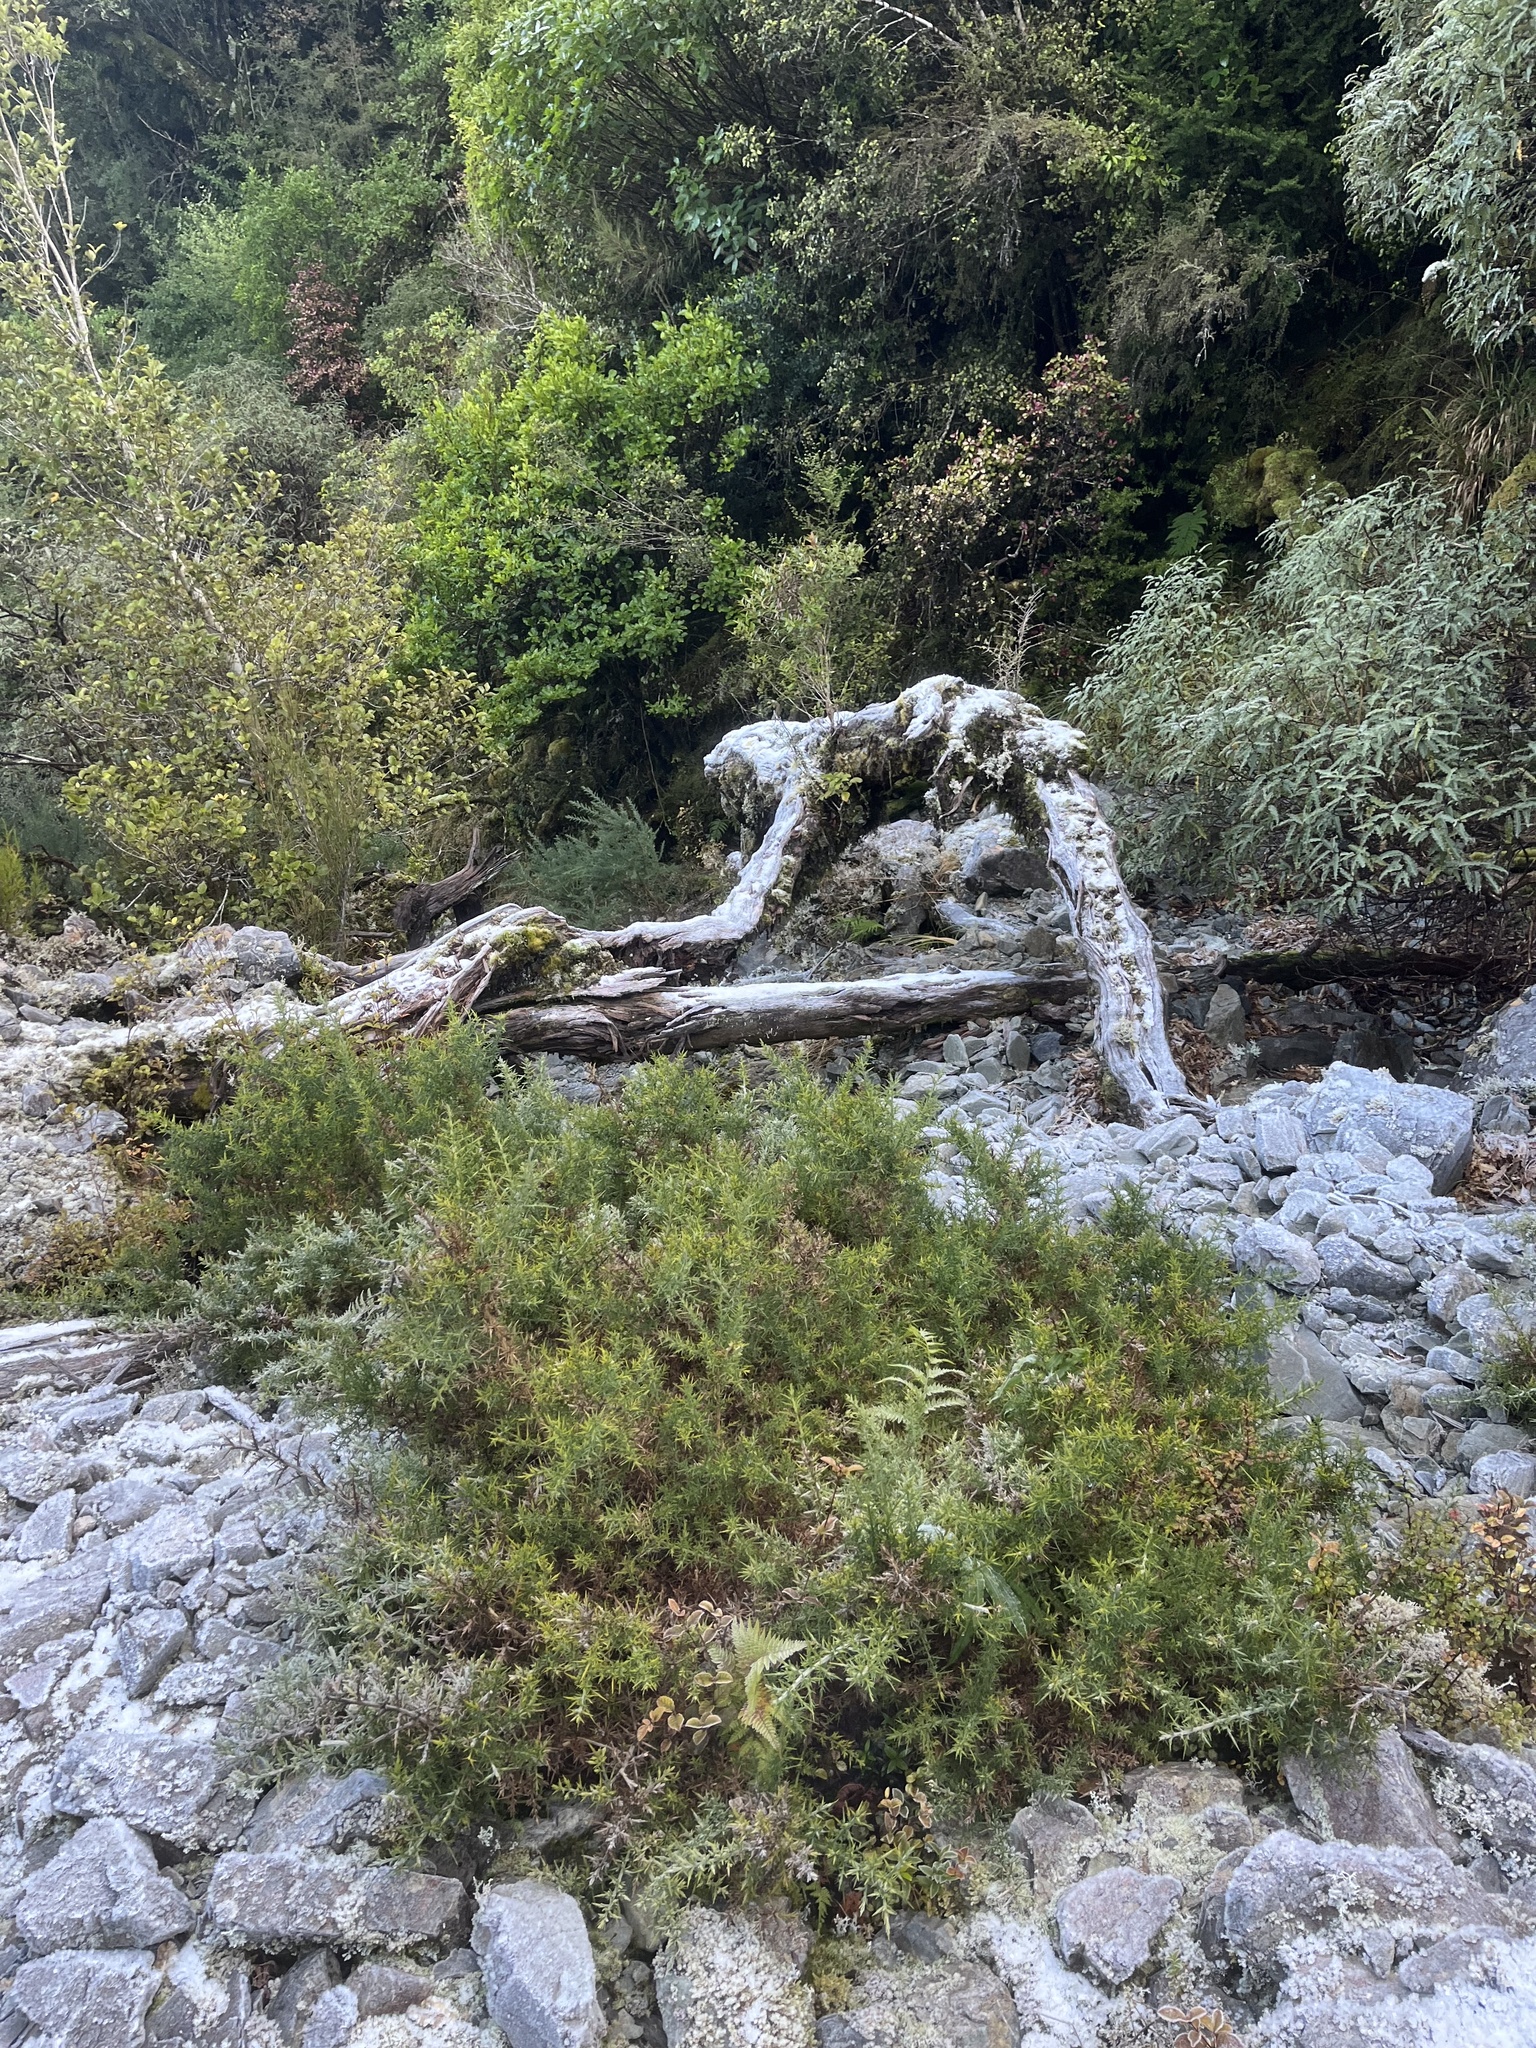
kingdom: Plantae
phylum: Tracheophyta
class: Magnoliopsida
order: Fabales
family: Fabaceae
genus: Ulex
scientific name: Ulex europaeus
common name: Common gorse
